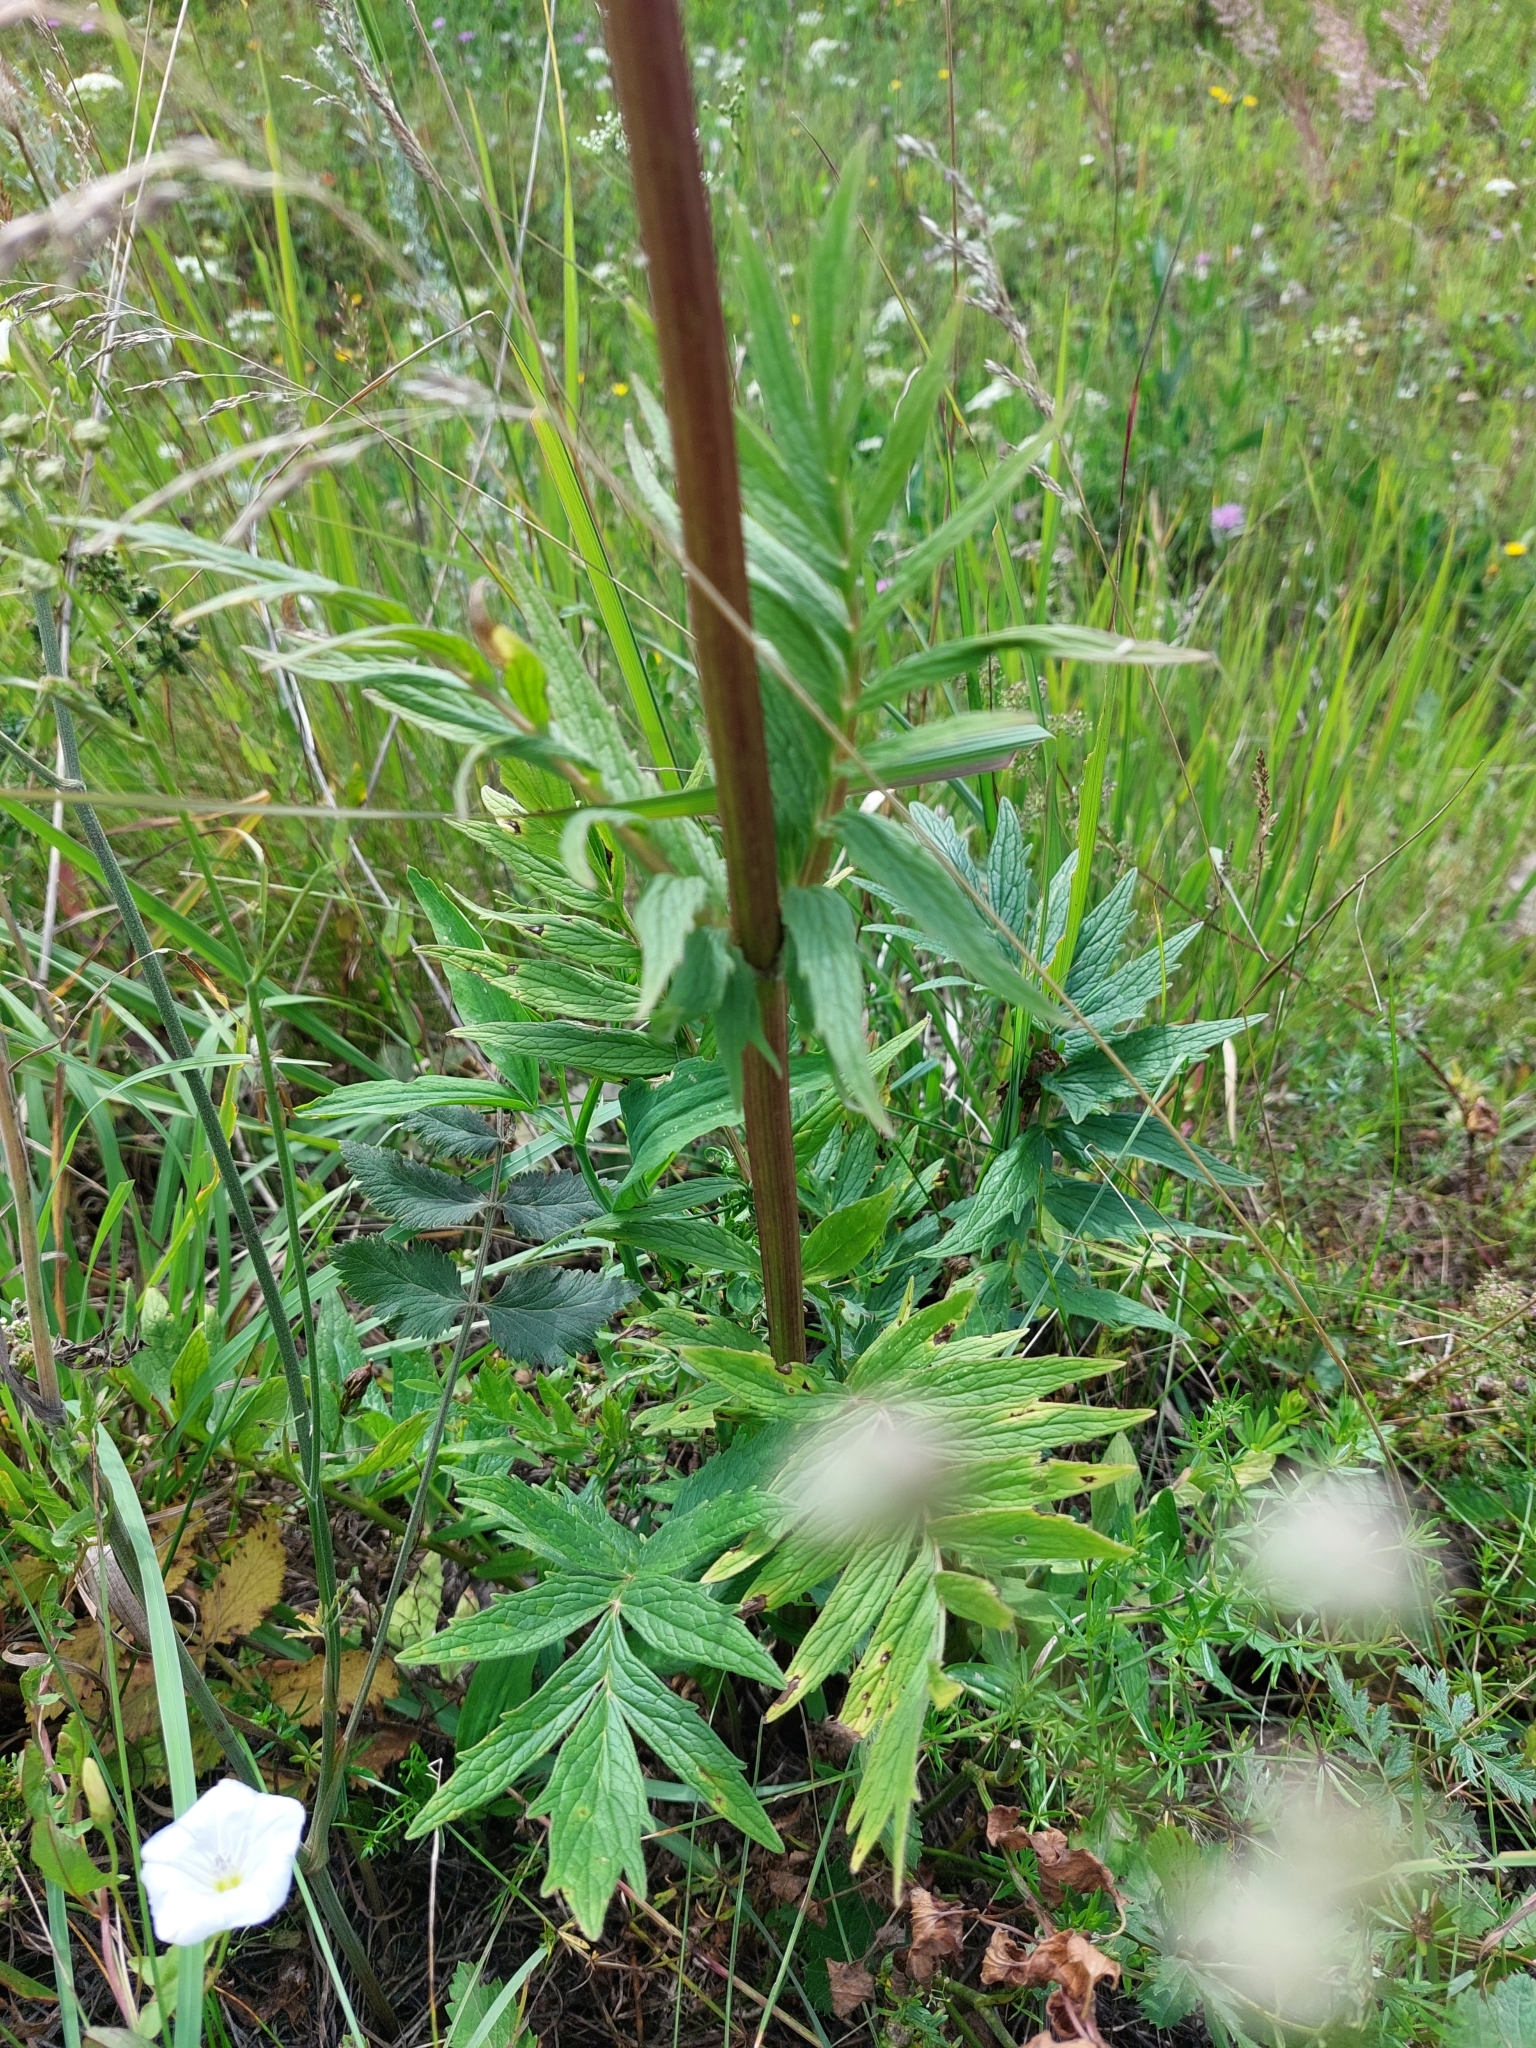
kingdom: Plantae
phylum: Tracheophyta
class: Magnoliopsida
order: Dipsacales
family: Caprifoliaceae
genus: Valeriana
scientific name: Valeriana officinalis
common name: Common valerian
